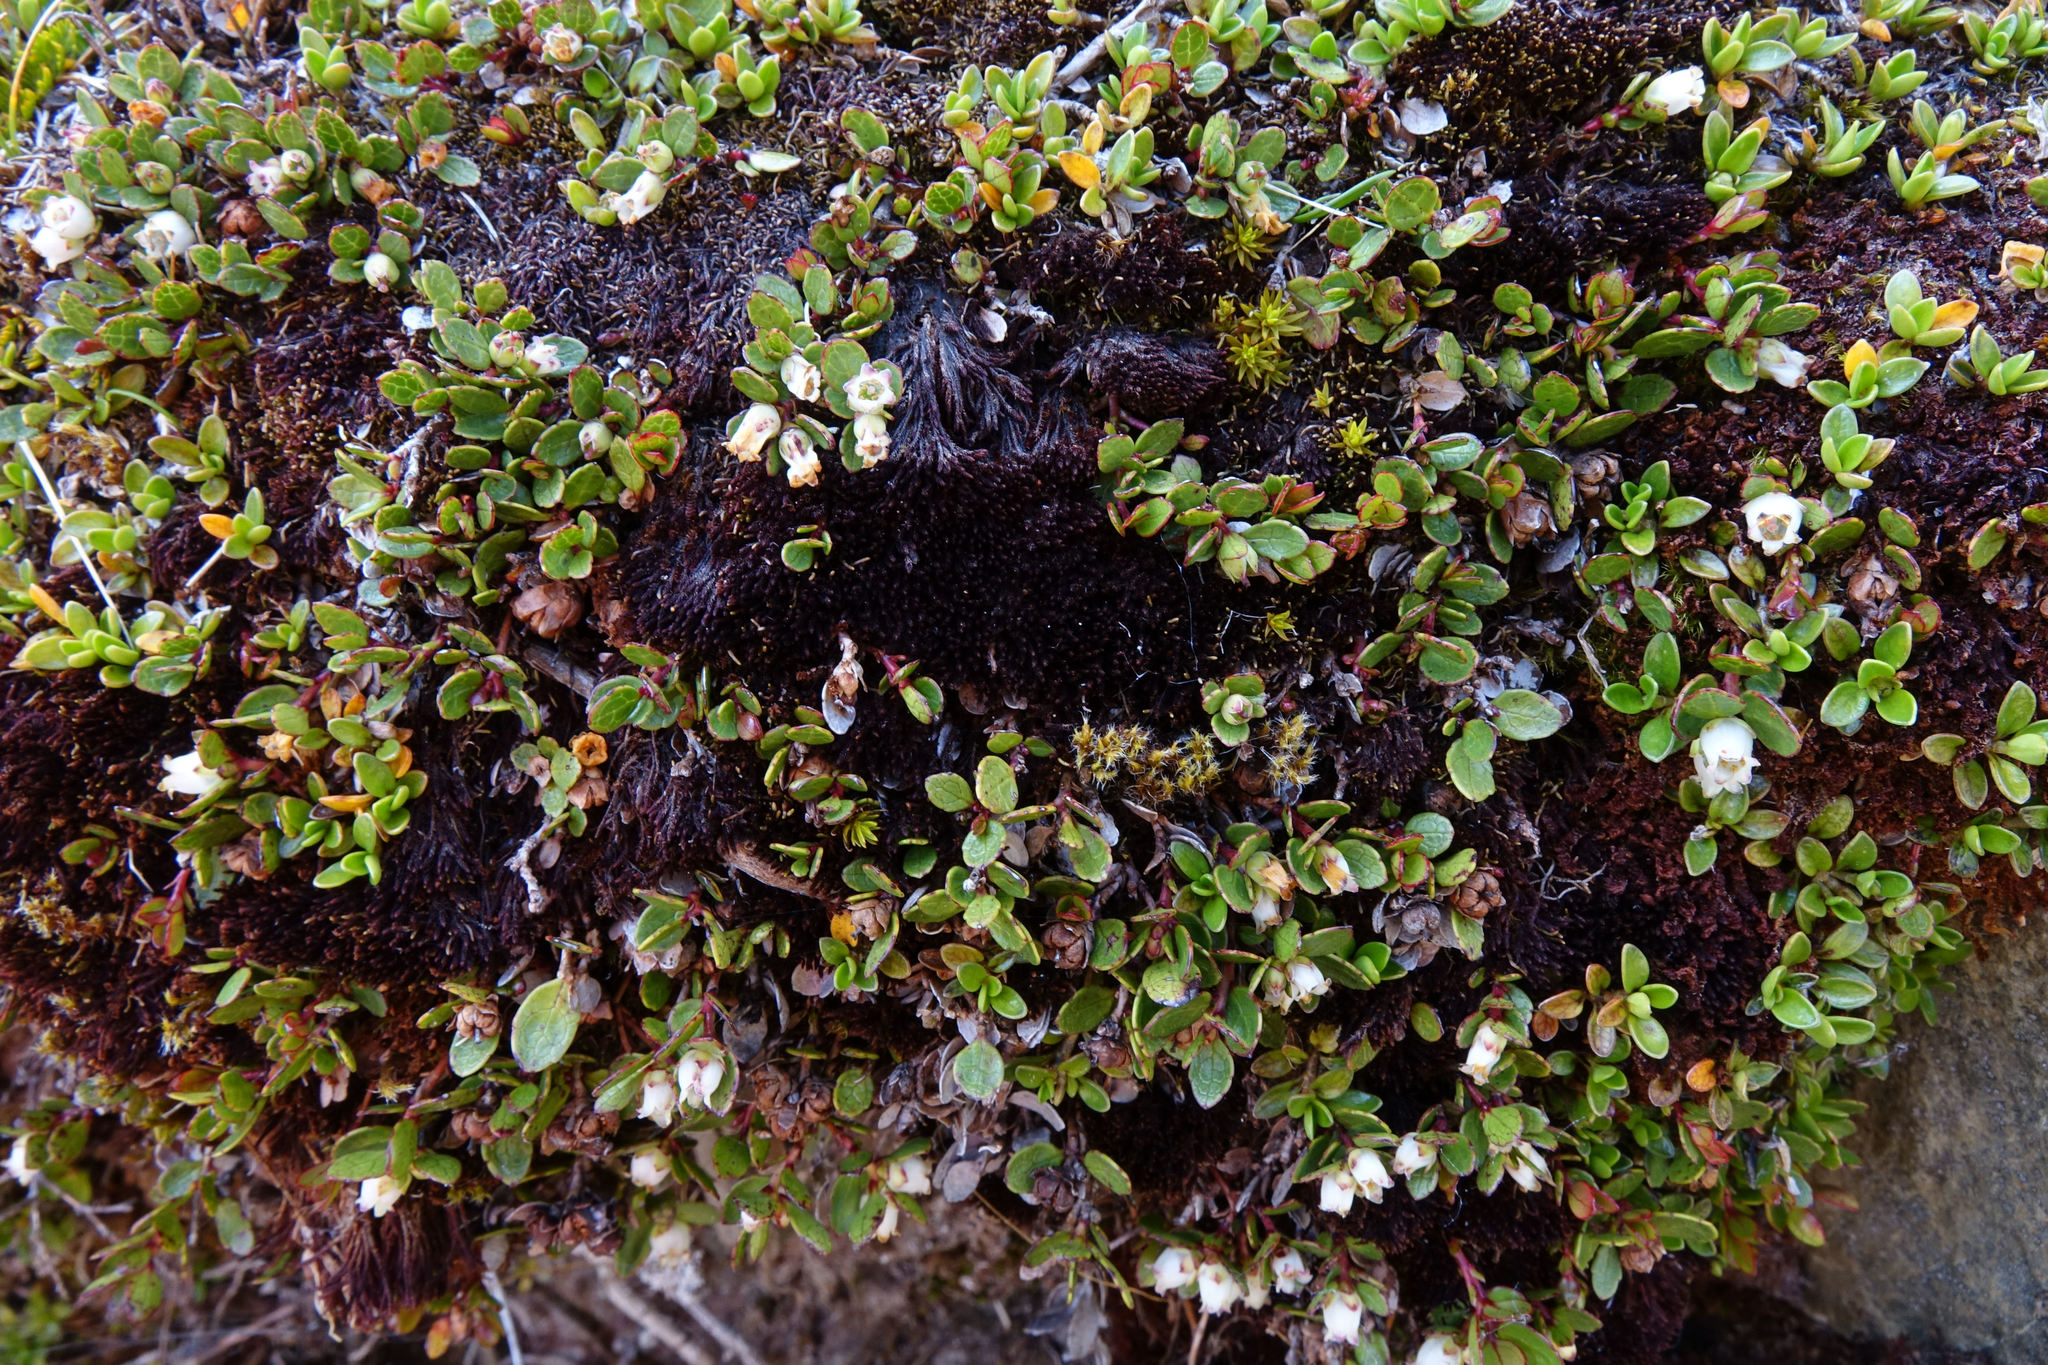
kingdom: Plantae
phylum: Tracheophyta
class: Magnoliopsida
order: Ericales
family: Ericaceae
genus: Gaultheria
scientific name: Gaultheria nubicola
